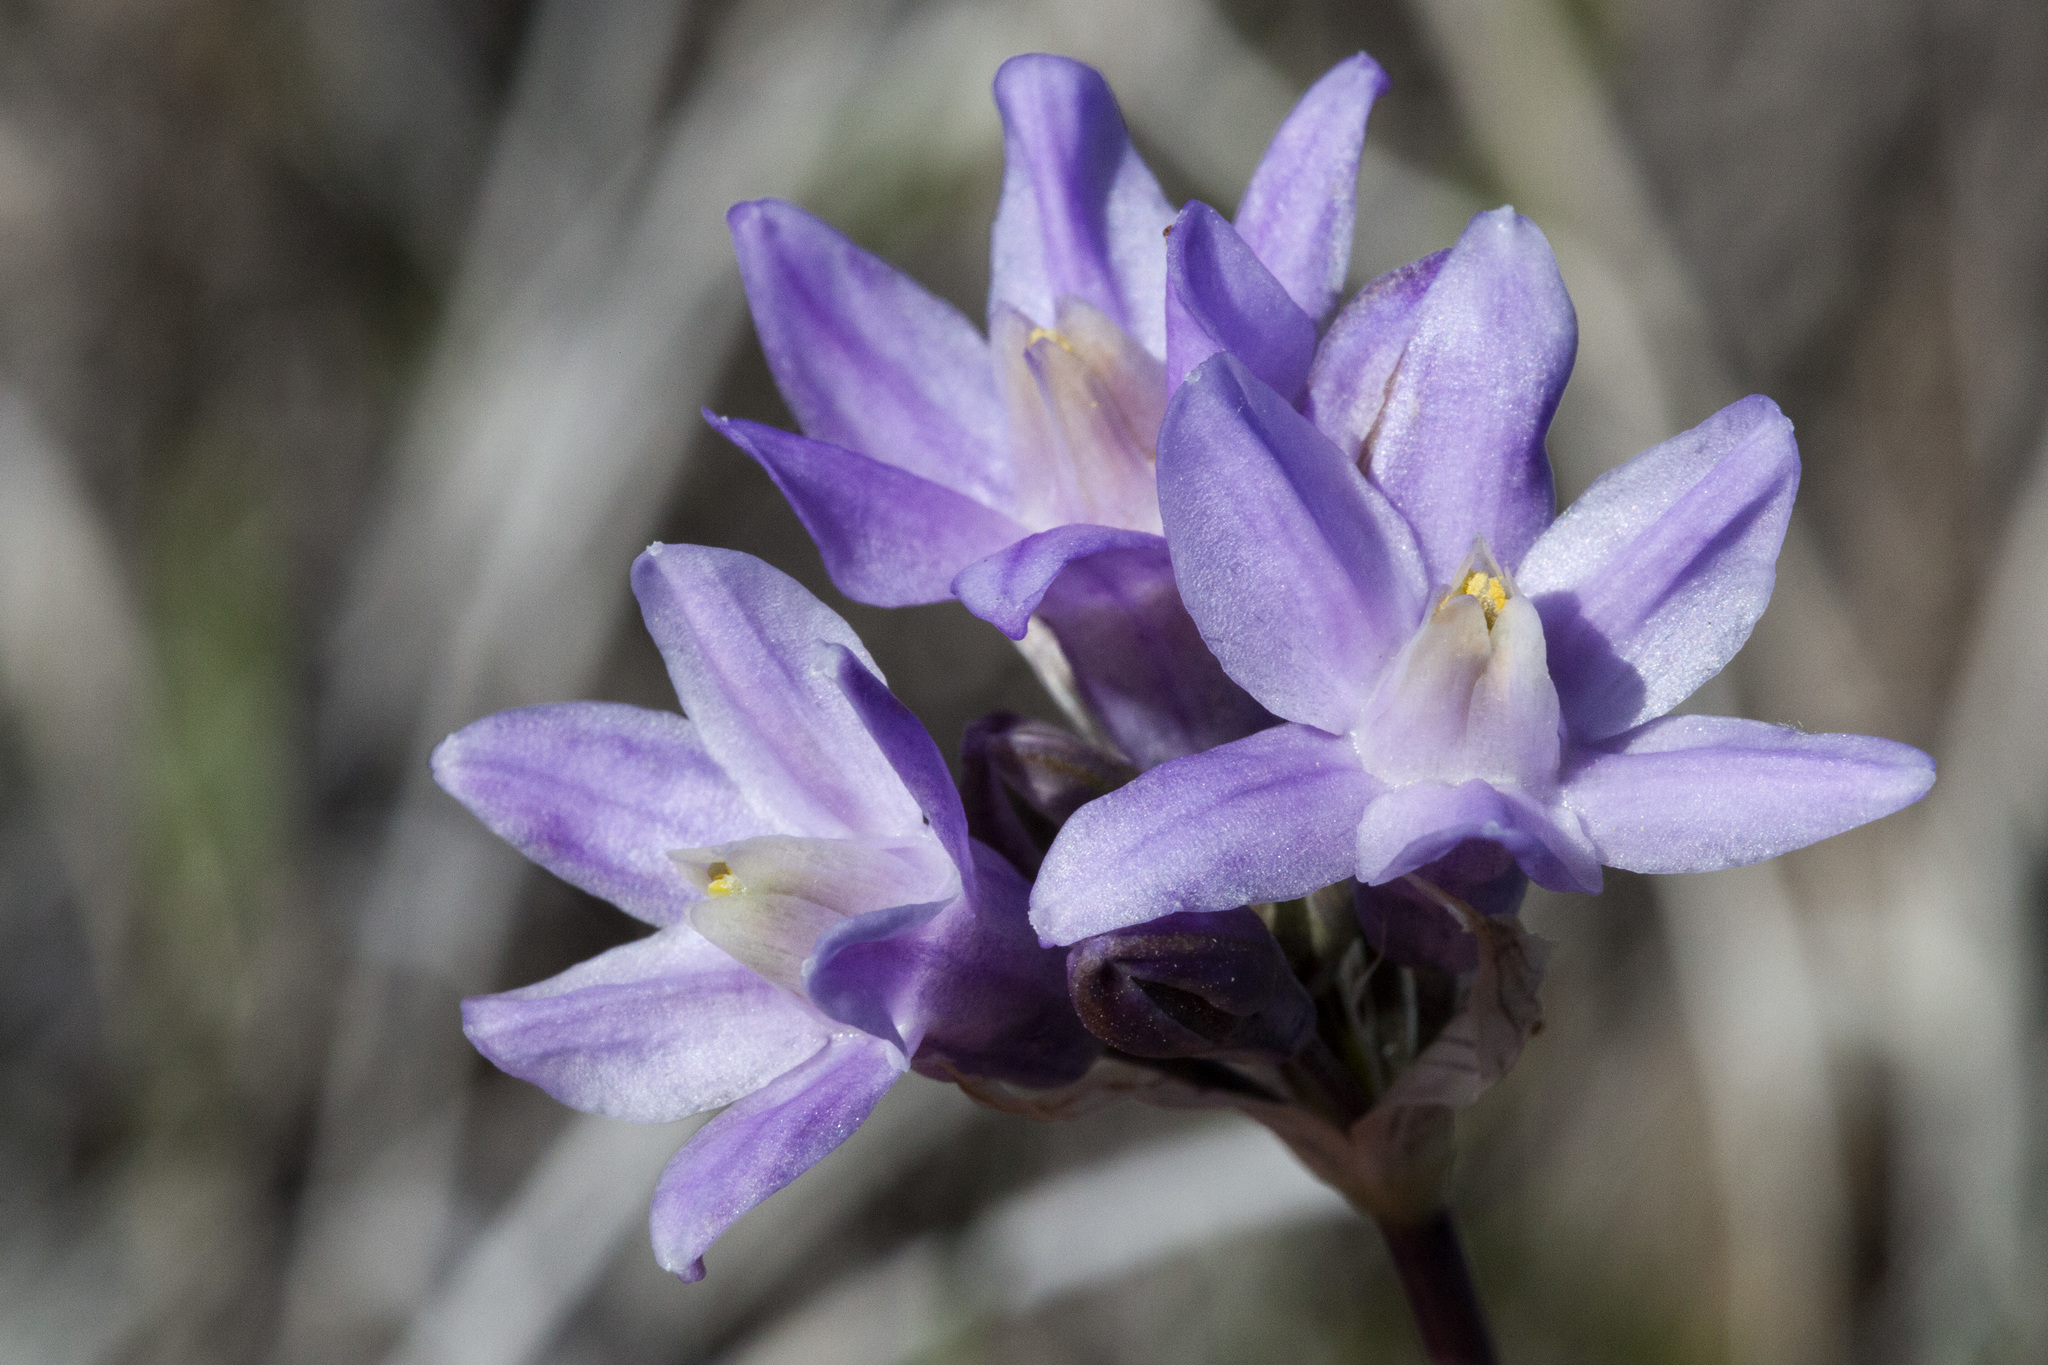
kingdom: Plantae
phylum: Tracheophyta
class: Liliopsida
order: Asparagales
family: Asparagaceae
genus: Dipterostemon
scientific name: Dipterostemon capitatus
